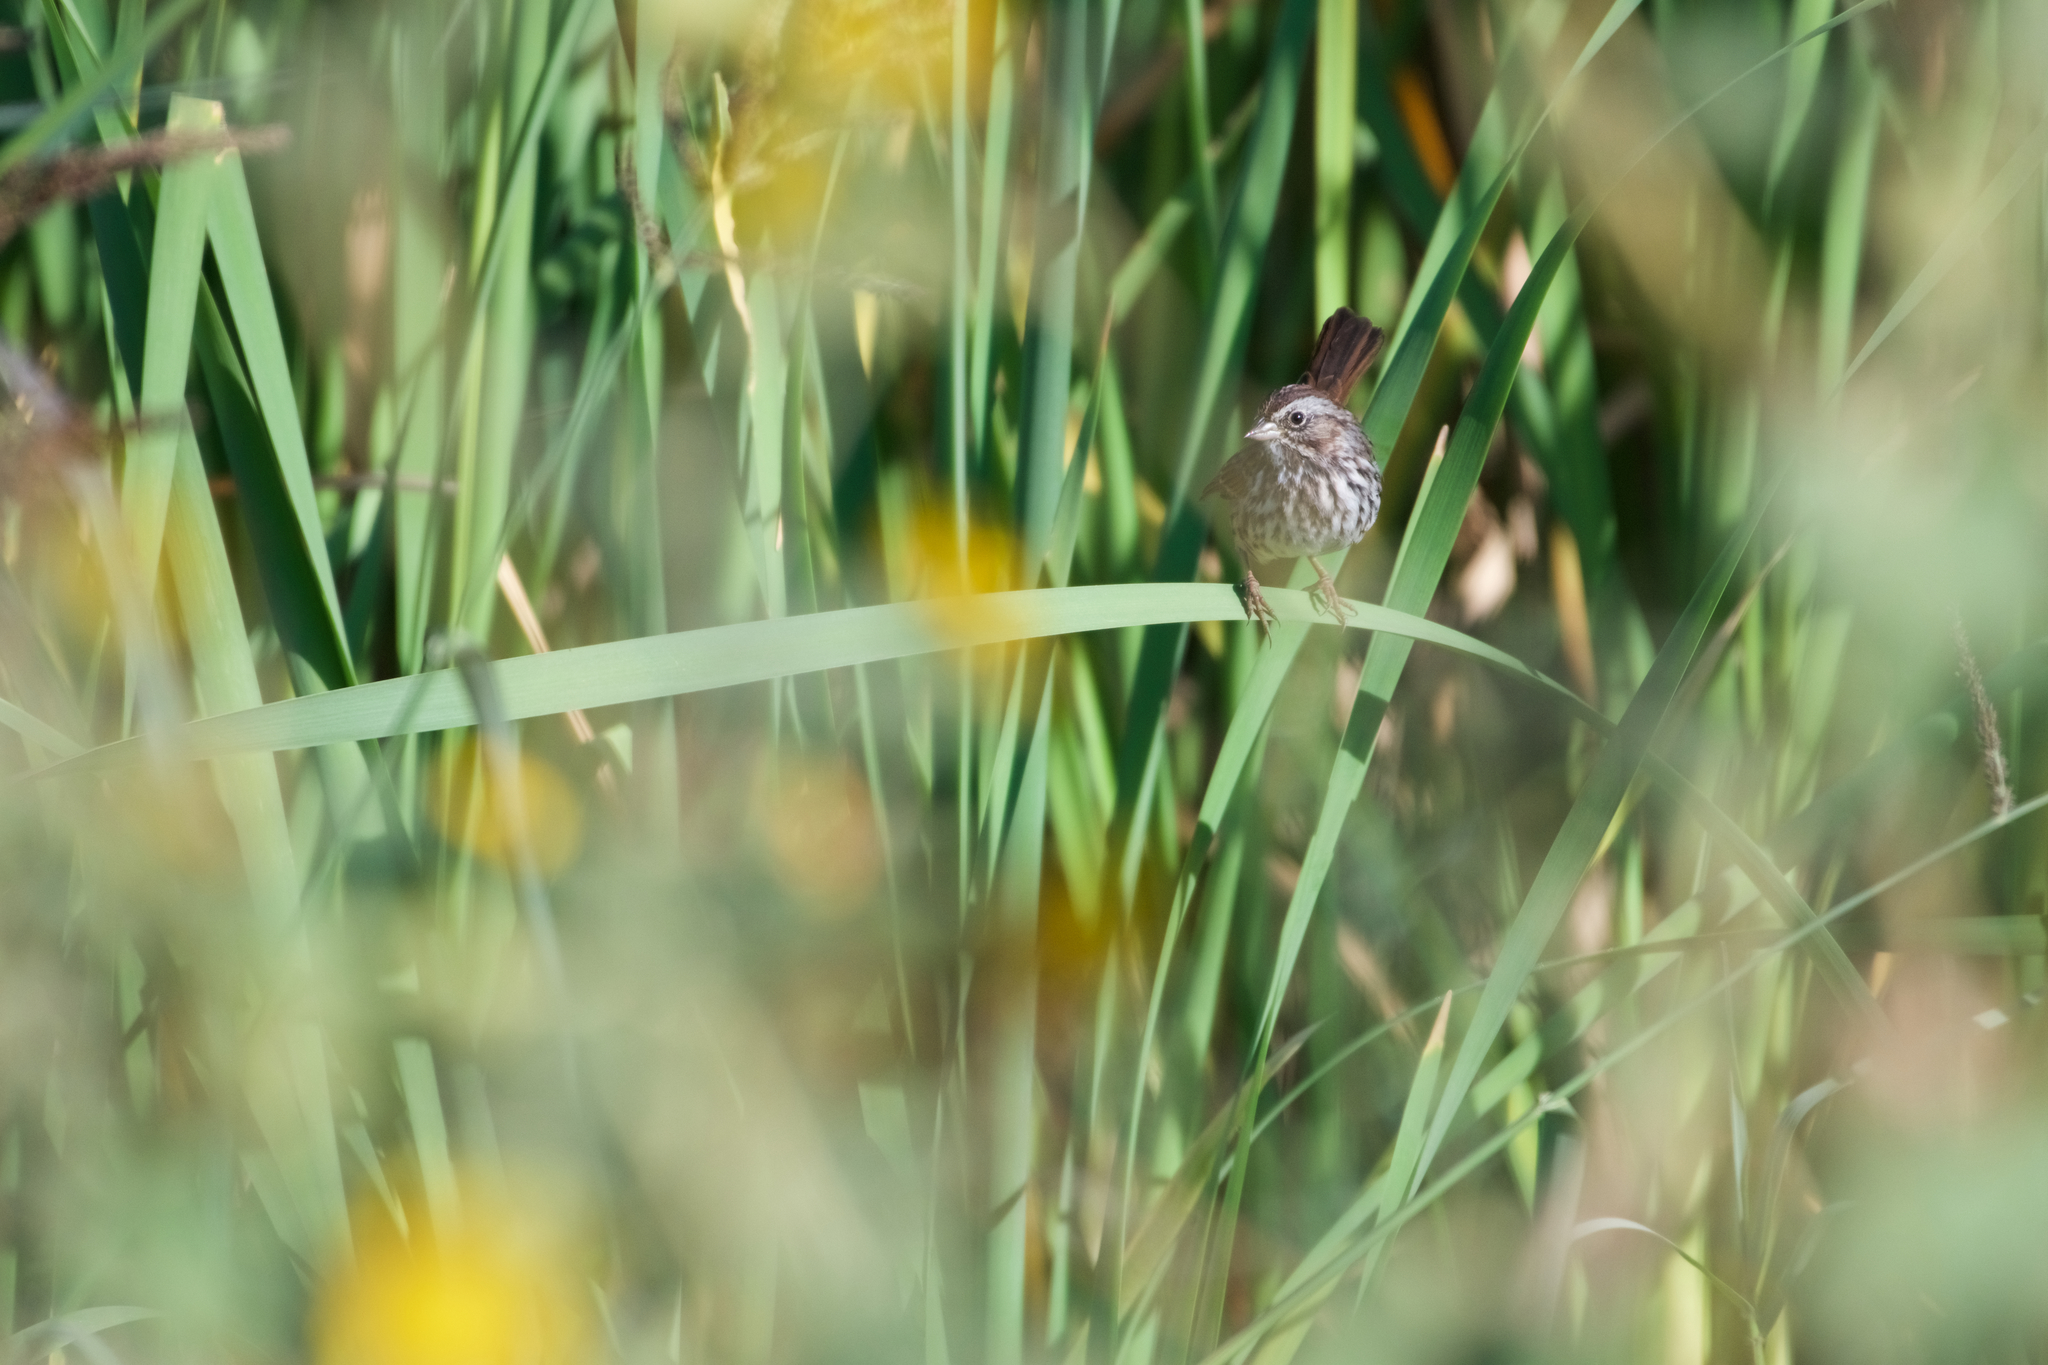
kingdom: Animalia
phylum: Chordata
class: Aves
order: Passeriformes
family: Passerellidae
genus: Melospiza
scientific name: Melospiza melodia
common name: Song sparrow
